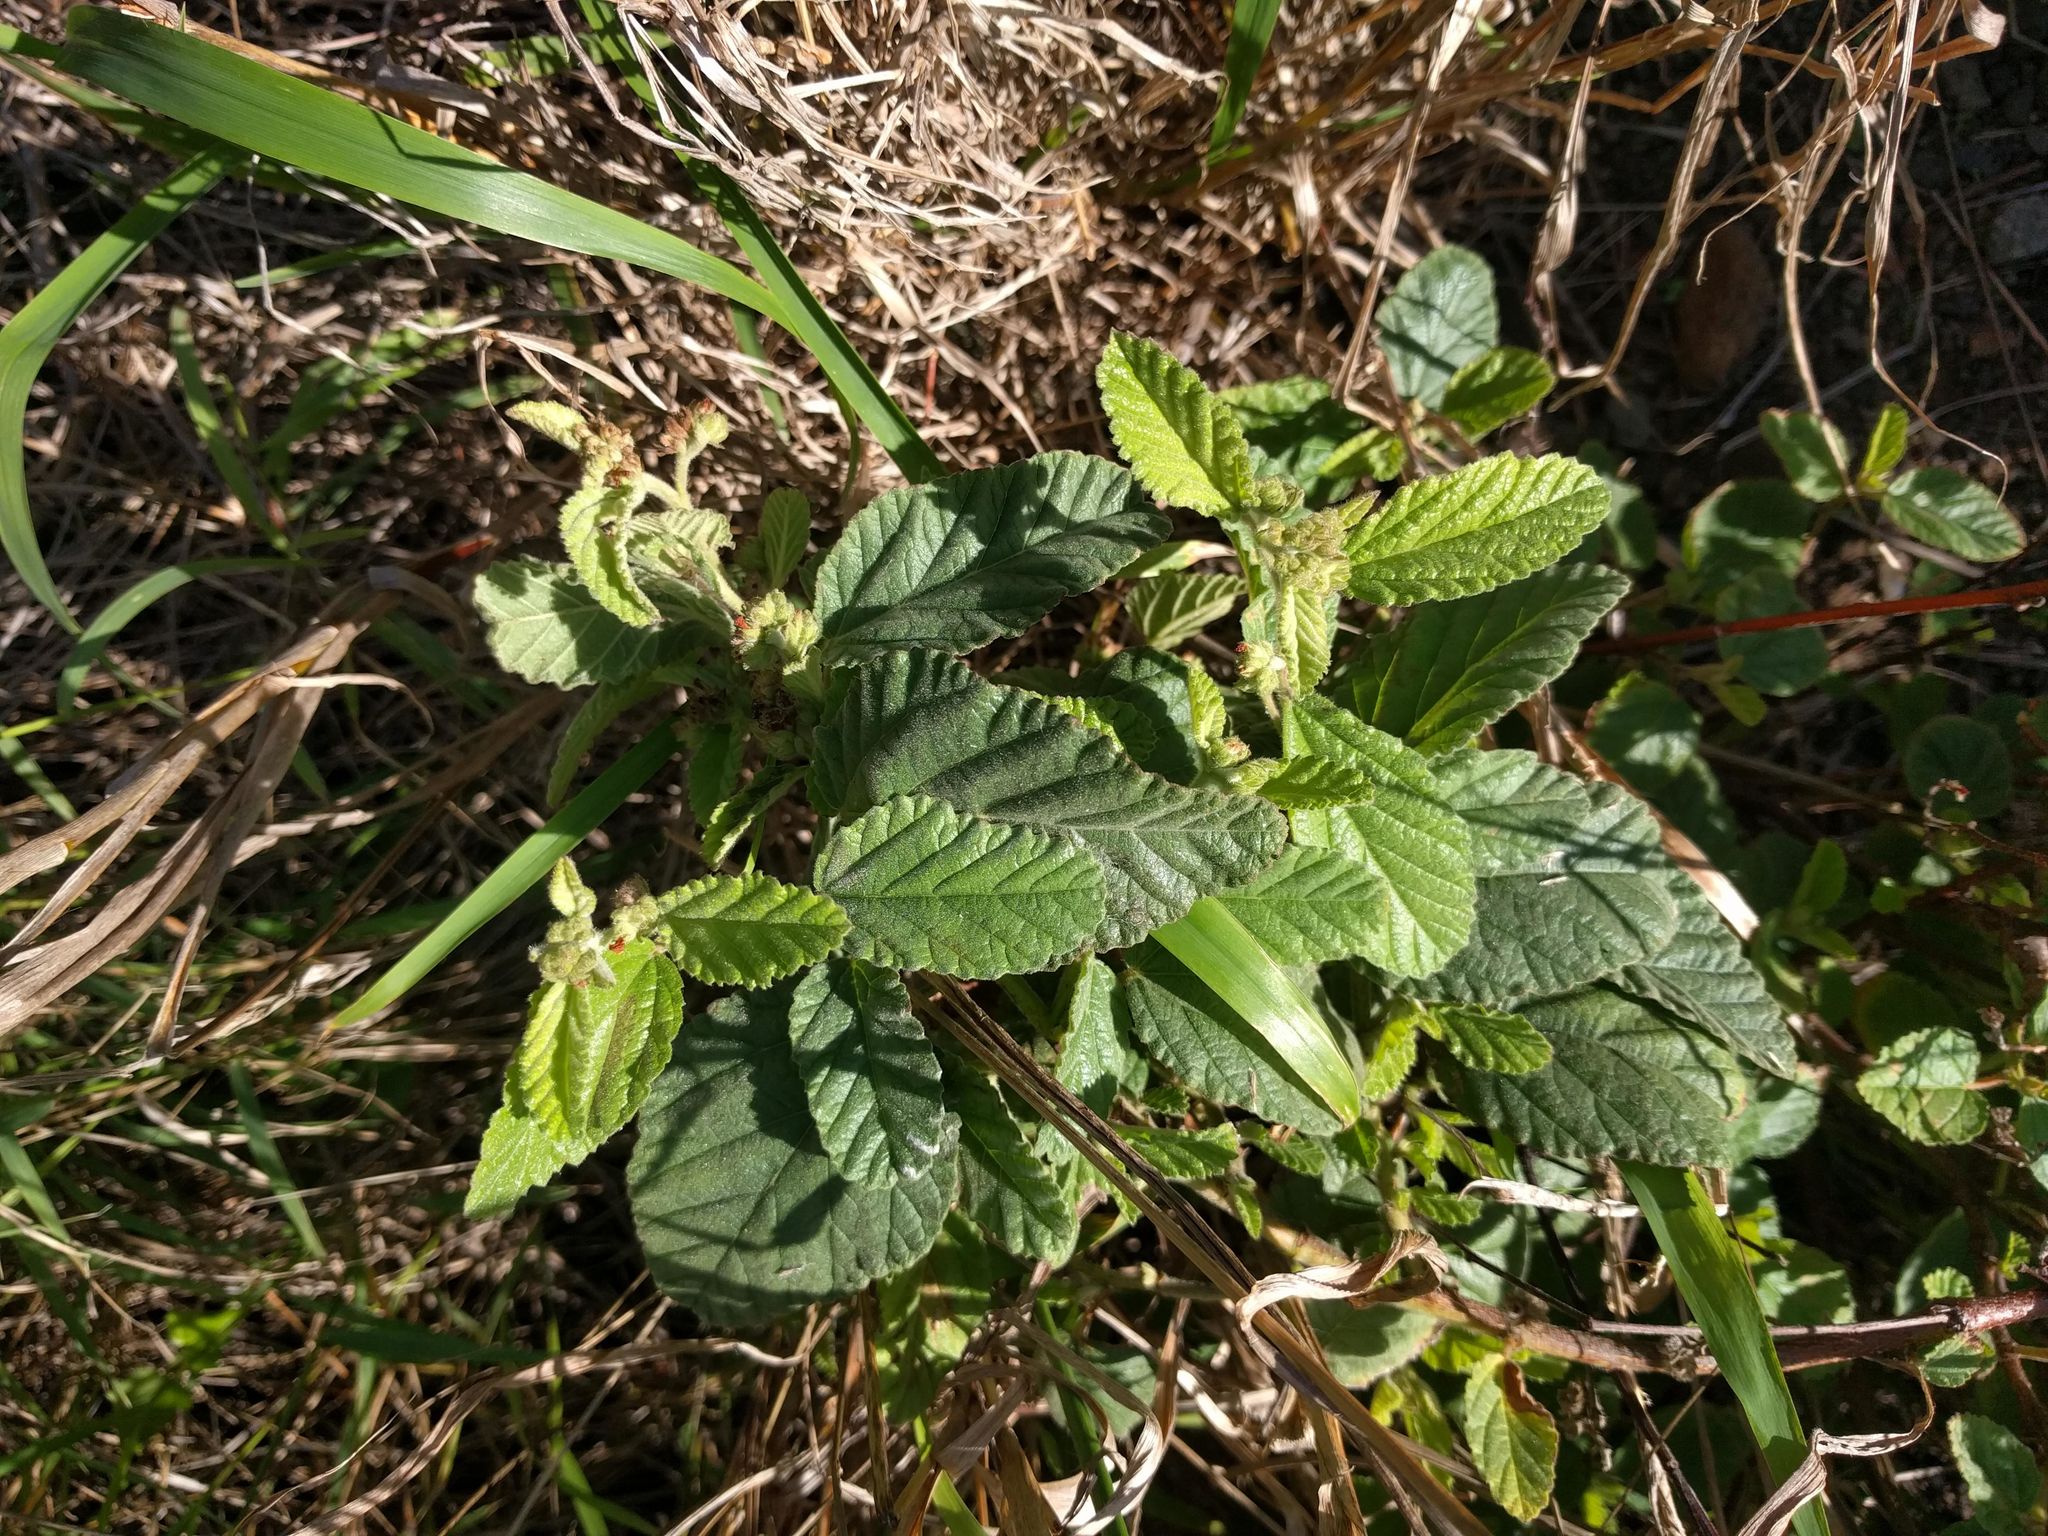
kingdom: Plantae
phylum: Tracheophyta
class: Magnoliopsida
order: Malvales
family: Malvaceae
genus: Waltheria
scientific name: Waltheria indica
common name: Leather-coat
